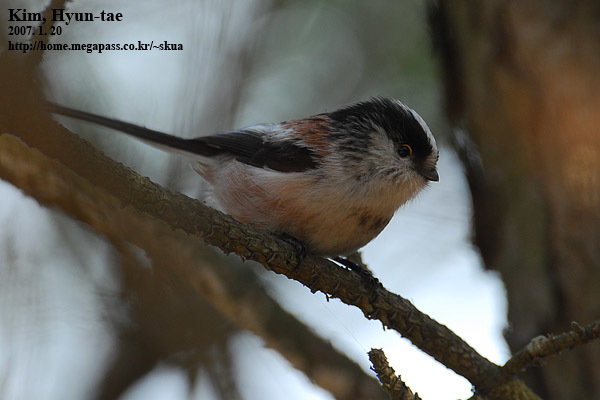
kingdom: Animalia
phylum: Chordata
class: Aves
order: Passeriformes
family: Aegithalidae
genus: Aegithalos
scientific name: Aegithalos caudatus
